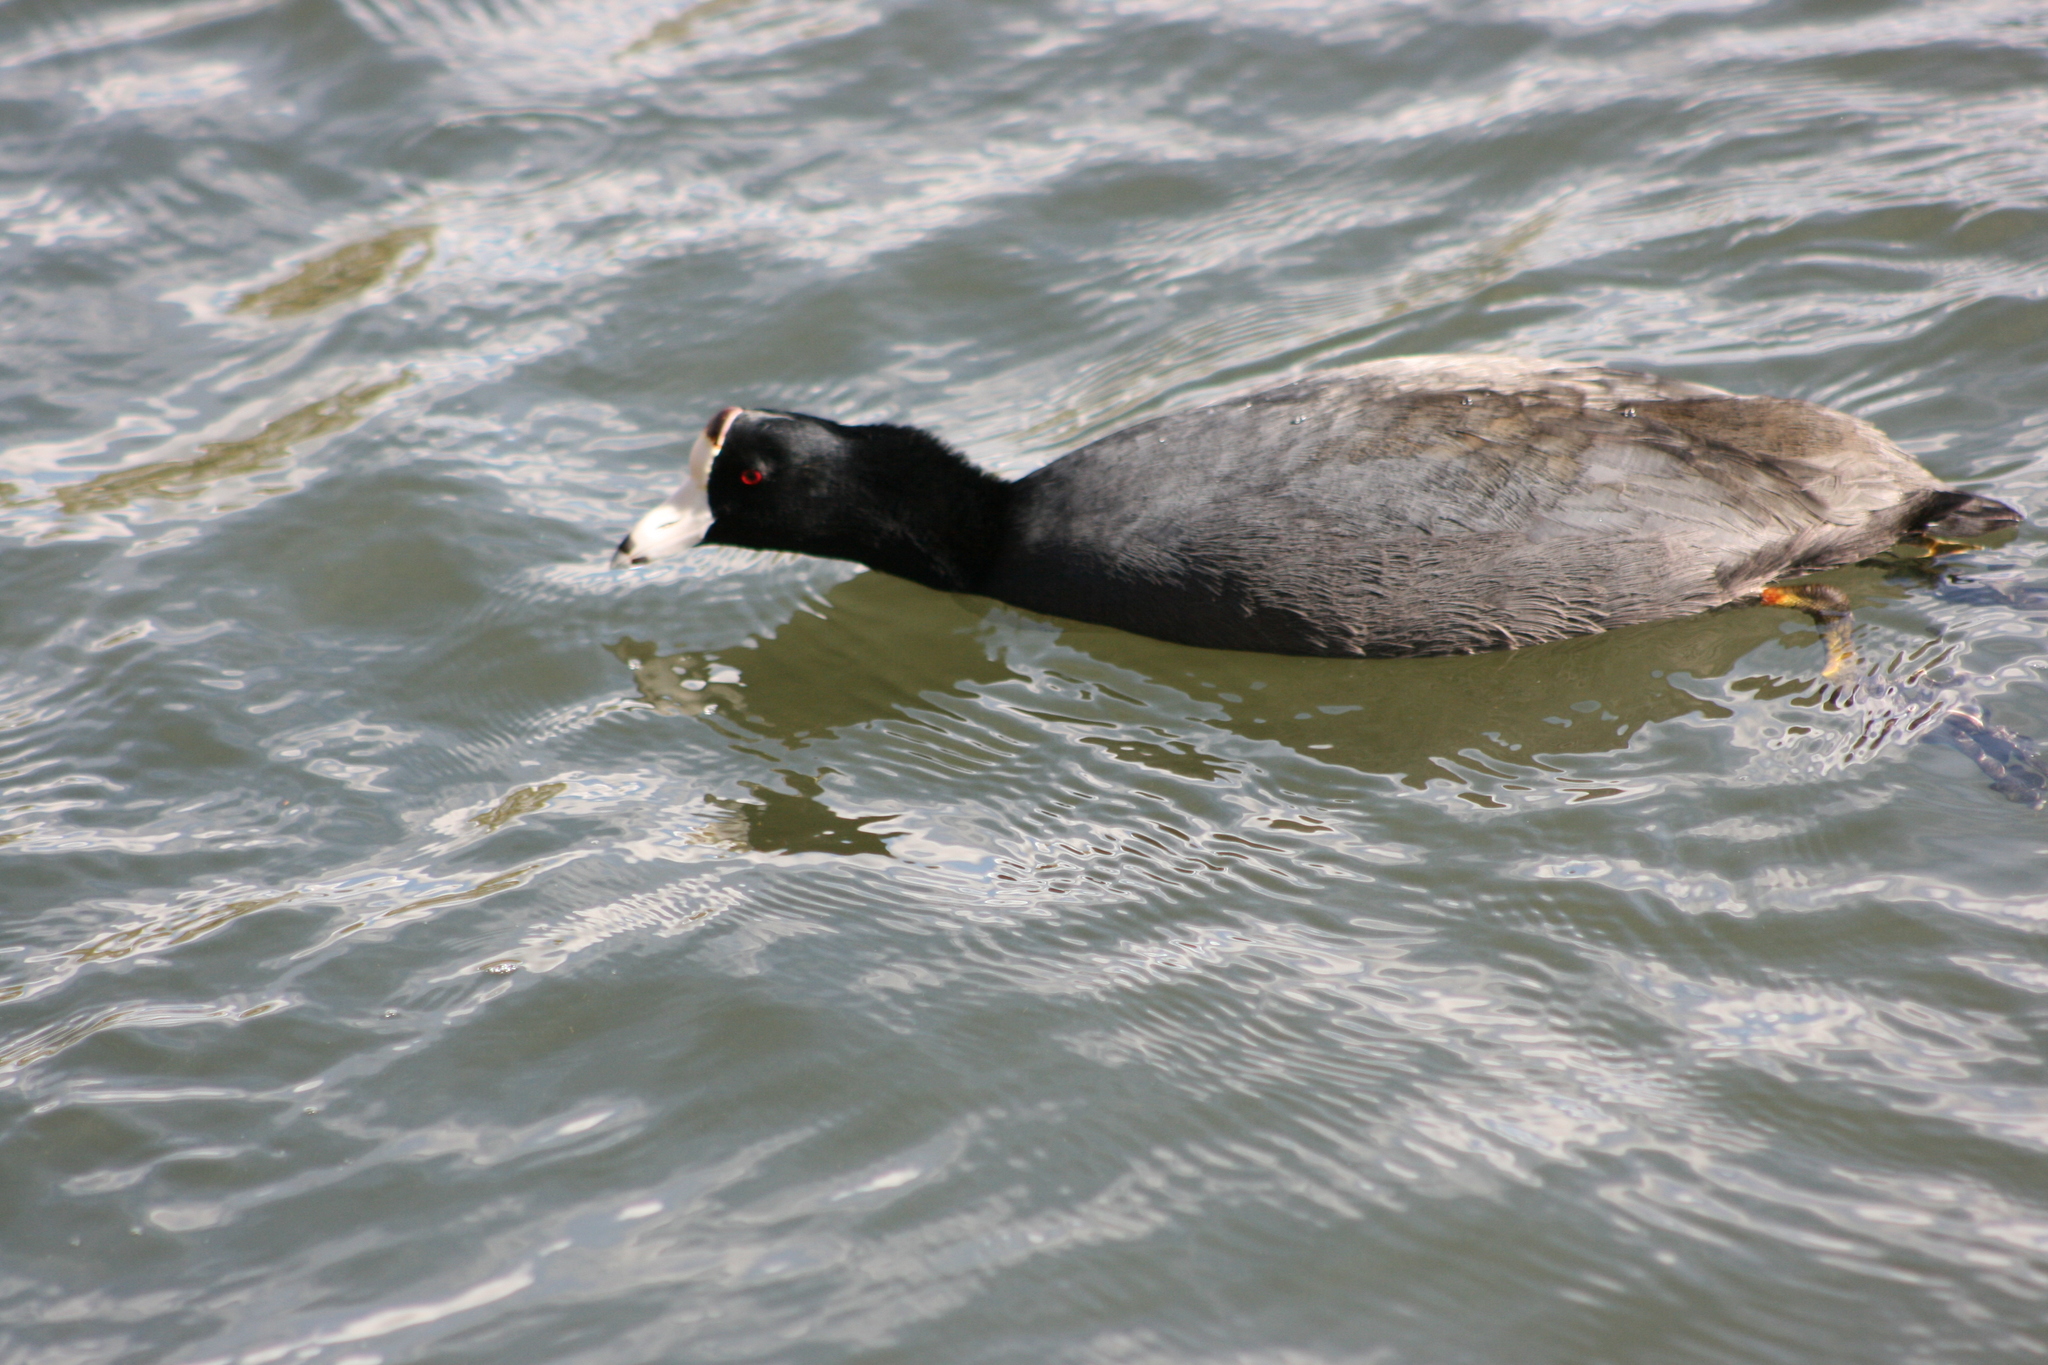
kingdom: Animalia
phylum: Chordata
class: Aves
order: Gruiformes
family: Rallidae
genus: Fulica
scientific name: Fulica americana
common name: American coot
